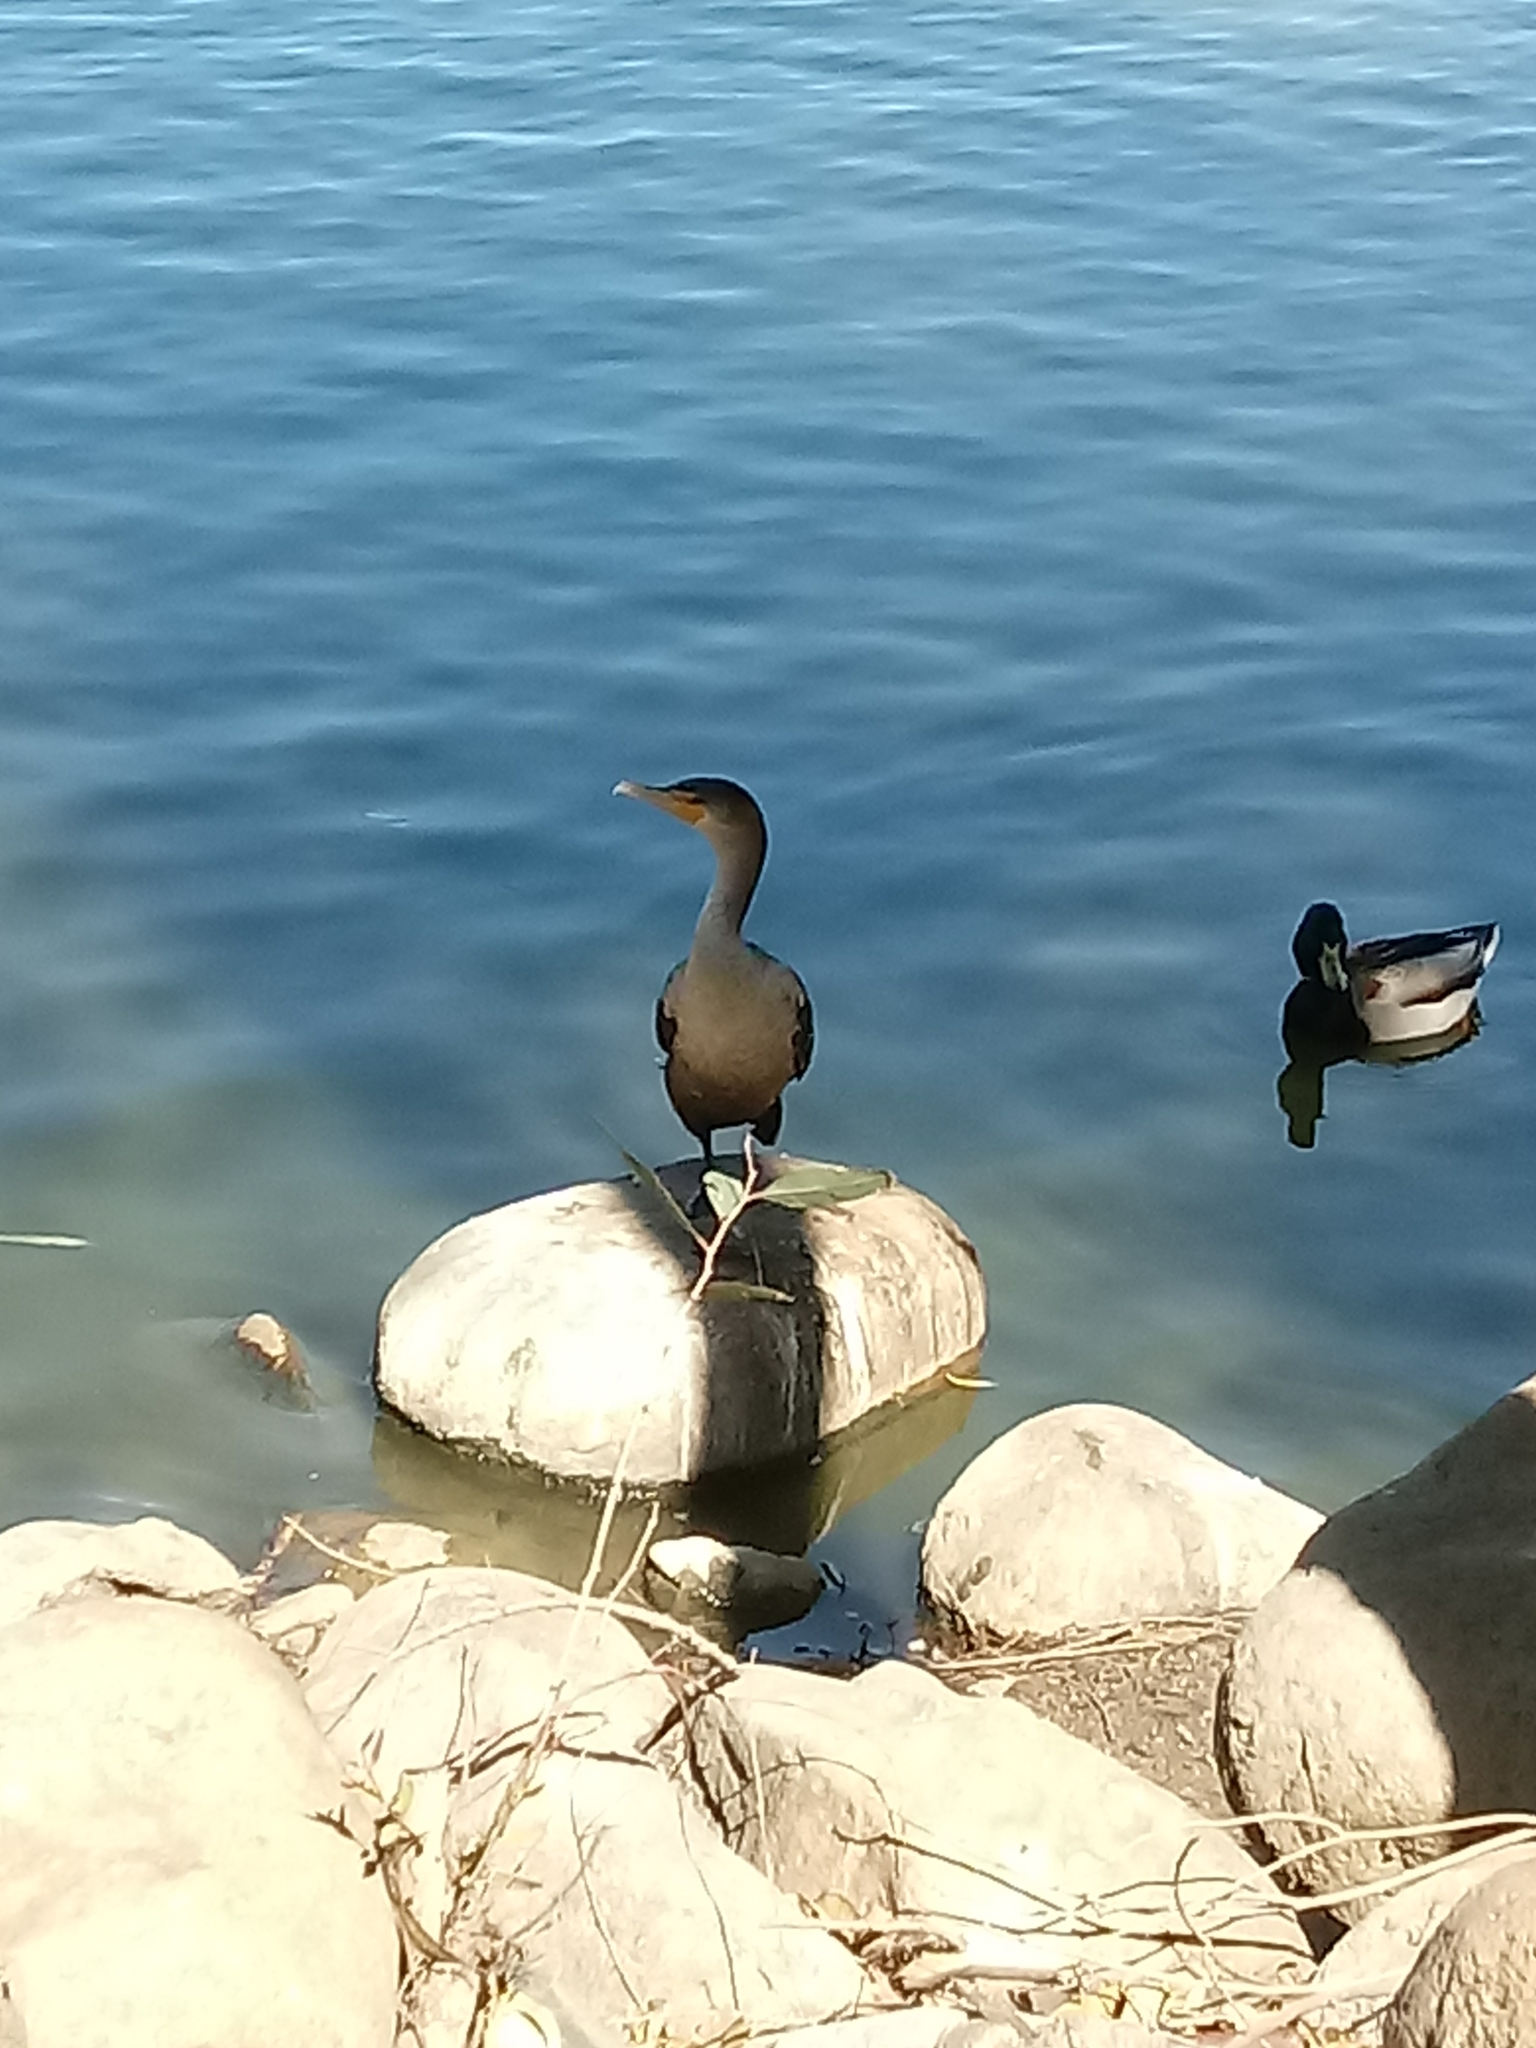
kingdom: Animalia
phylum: Chordata
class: Aves
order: Suliformes
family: Phalacrocoracidae
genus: Phalacrocorax
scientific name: Phalacrocorax auritus
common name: Double-crested cormorant
